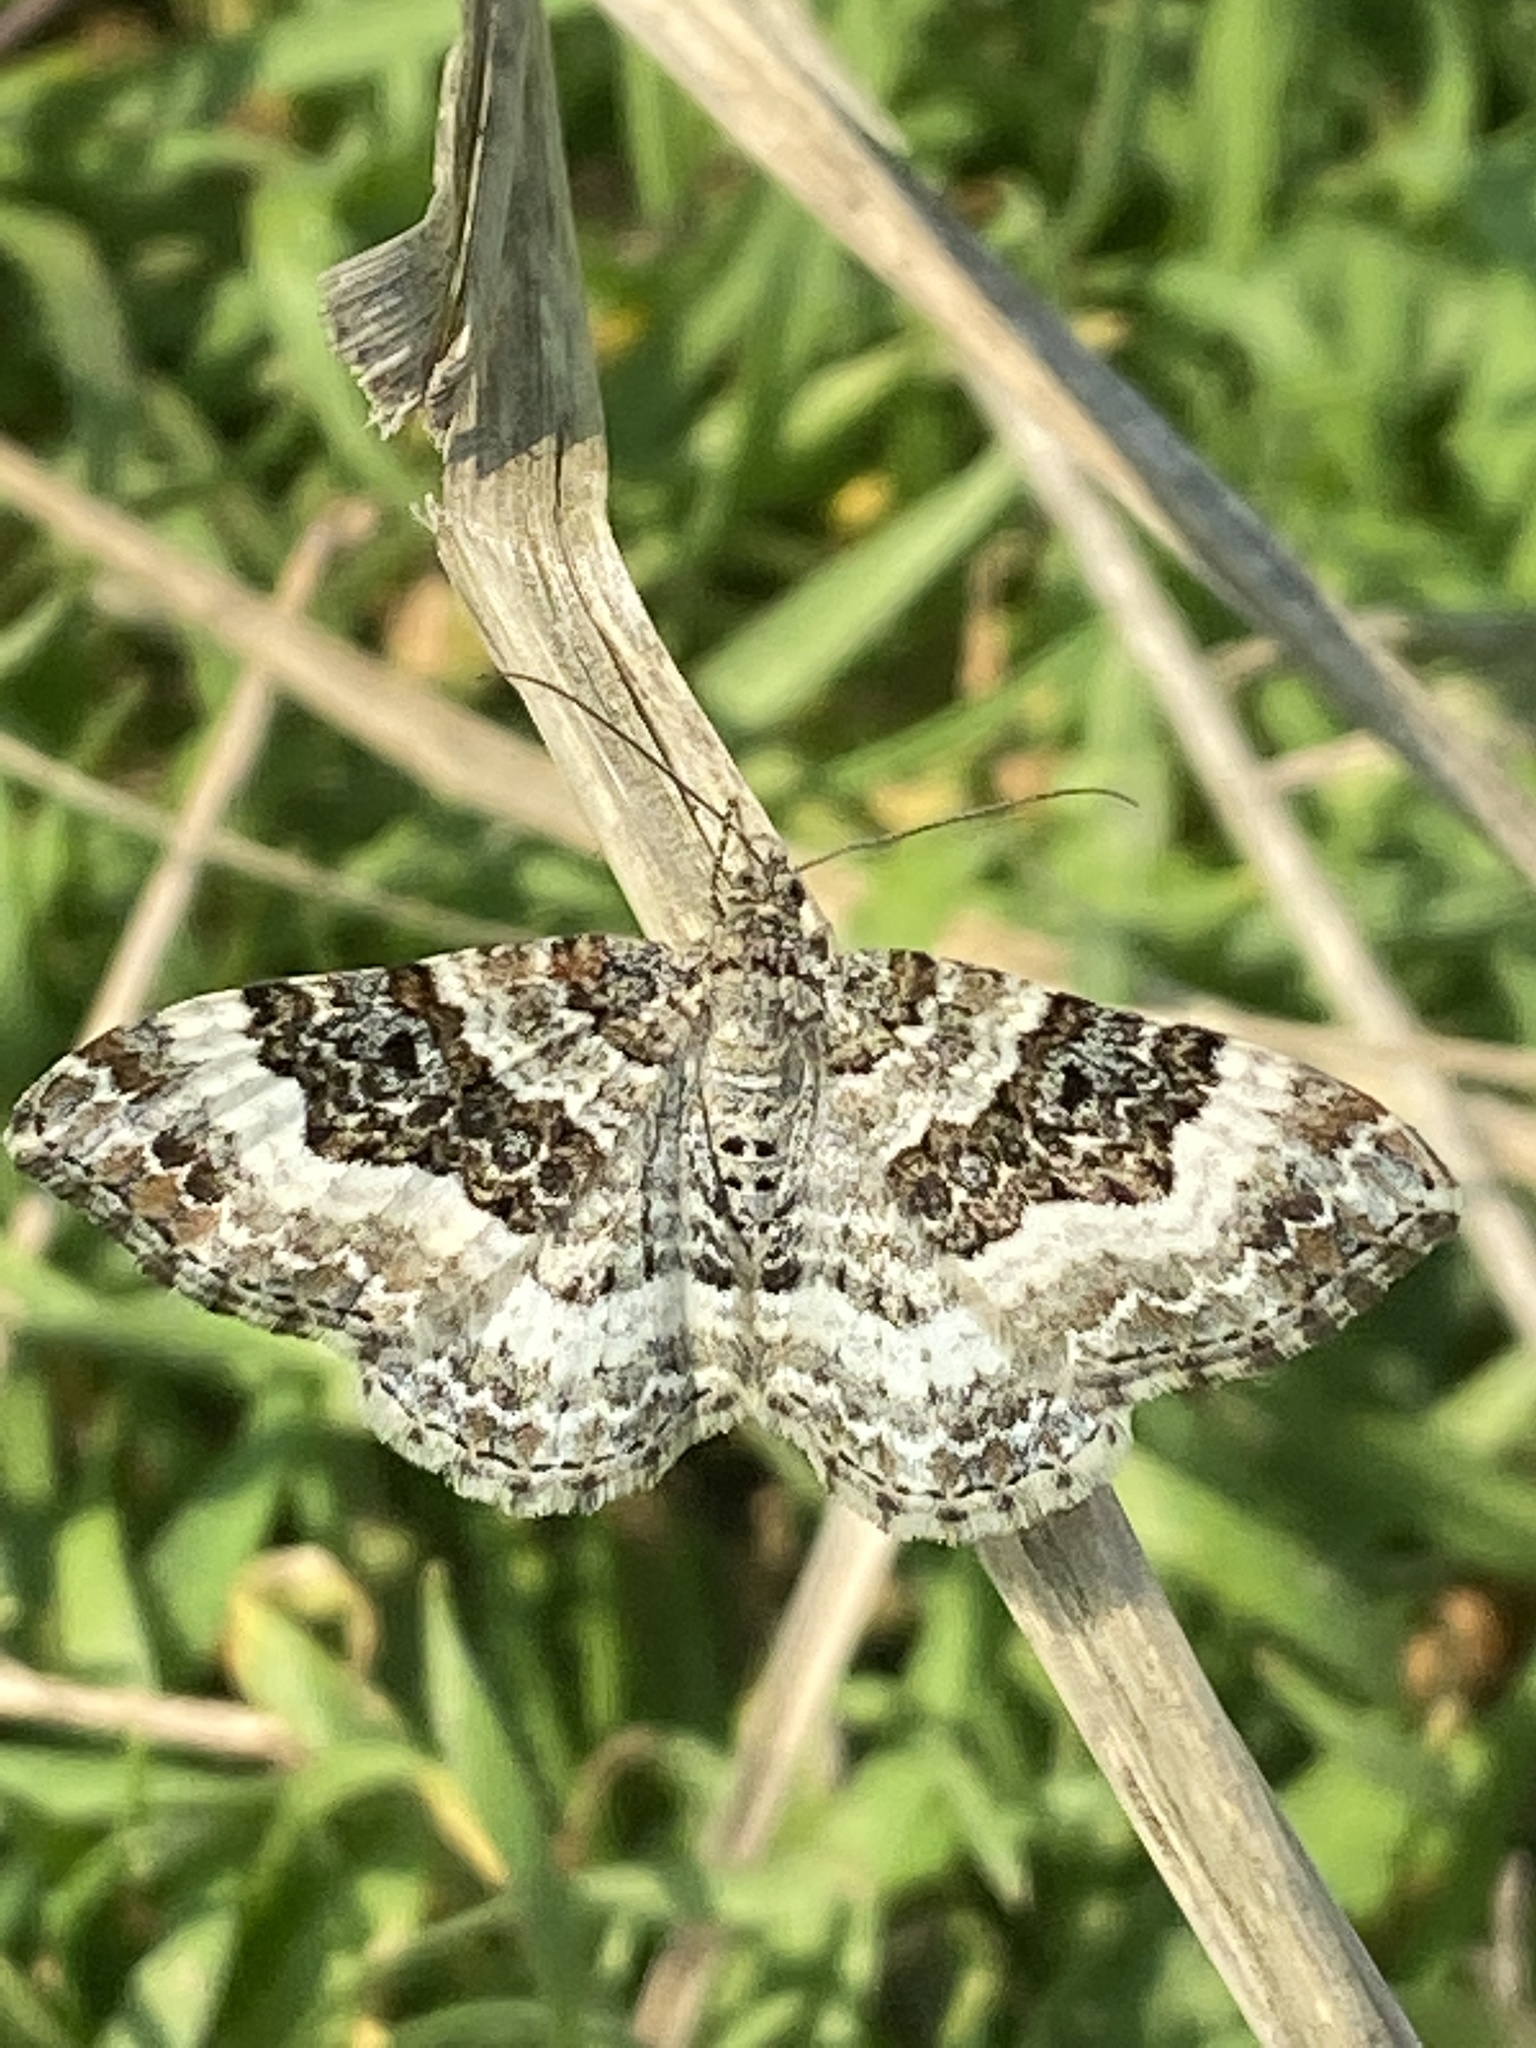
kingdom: Animalia
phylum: Arthropoda
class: Insecta
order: Lepidoptera
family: Geometridae
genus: Epirrhoe
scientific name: Epirrhoe alternata
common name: Common carpet
